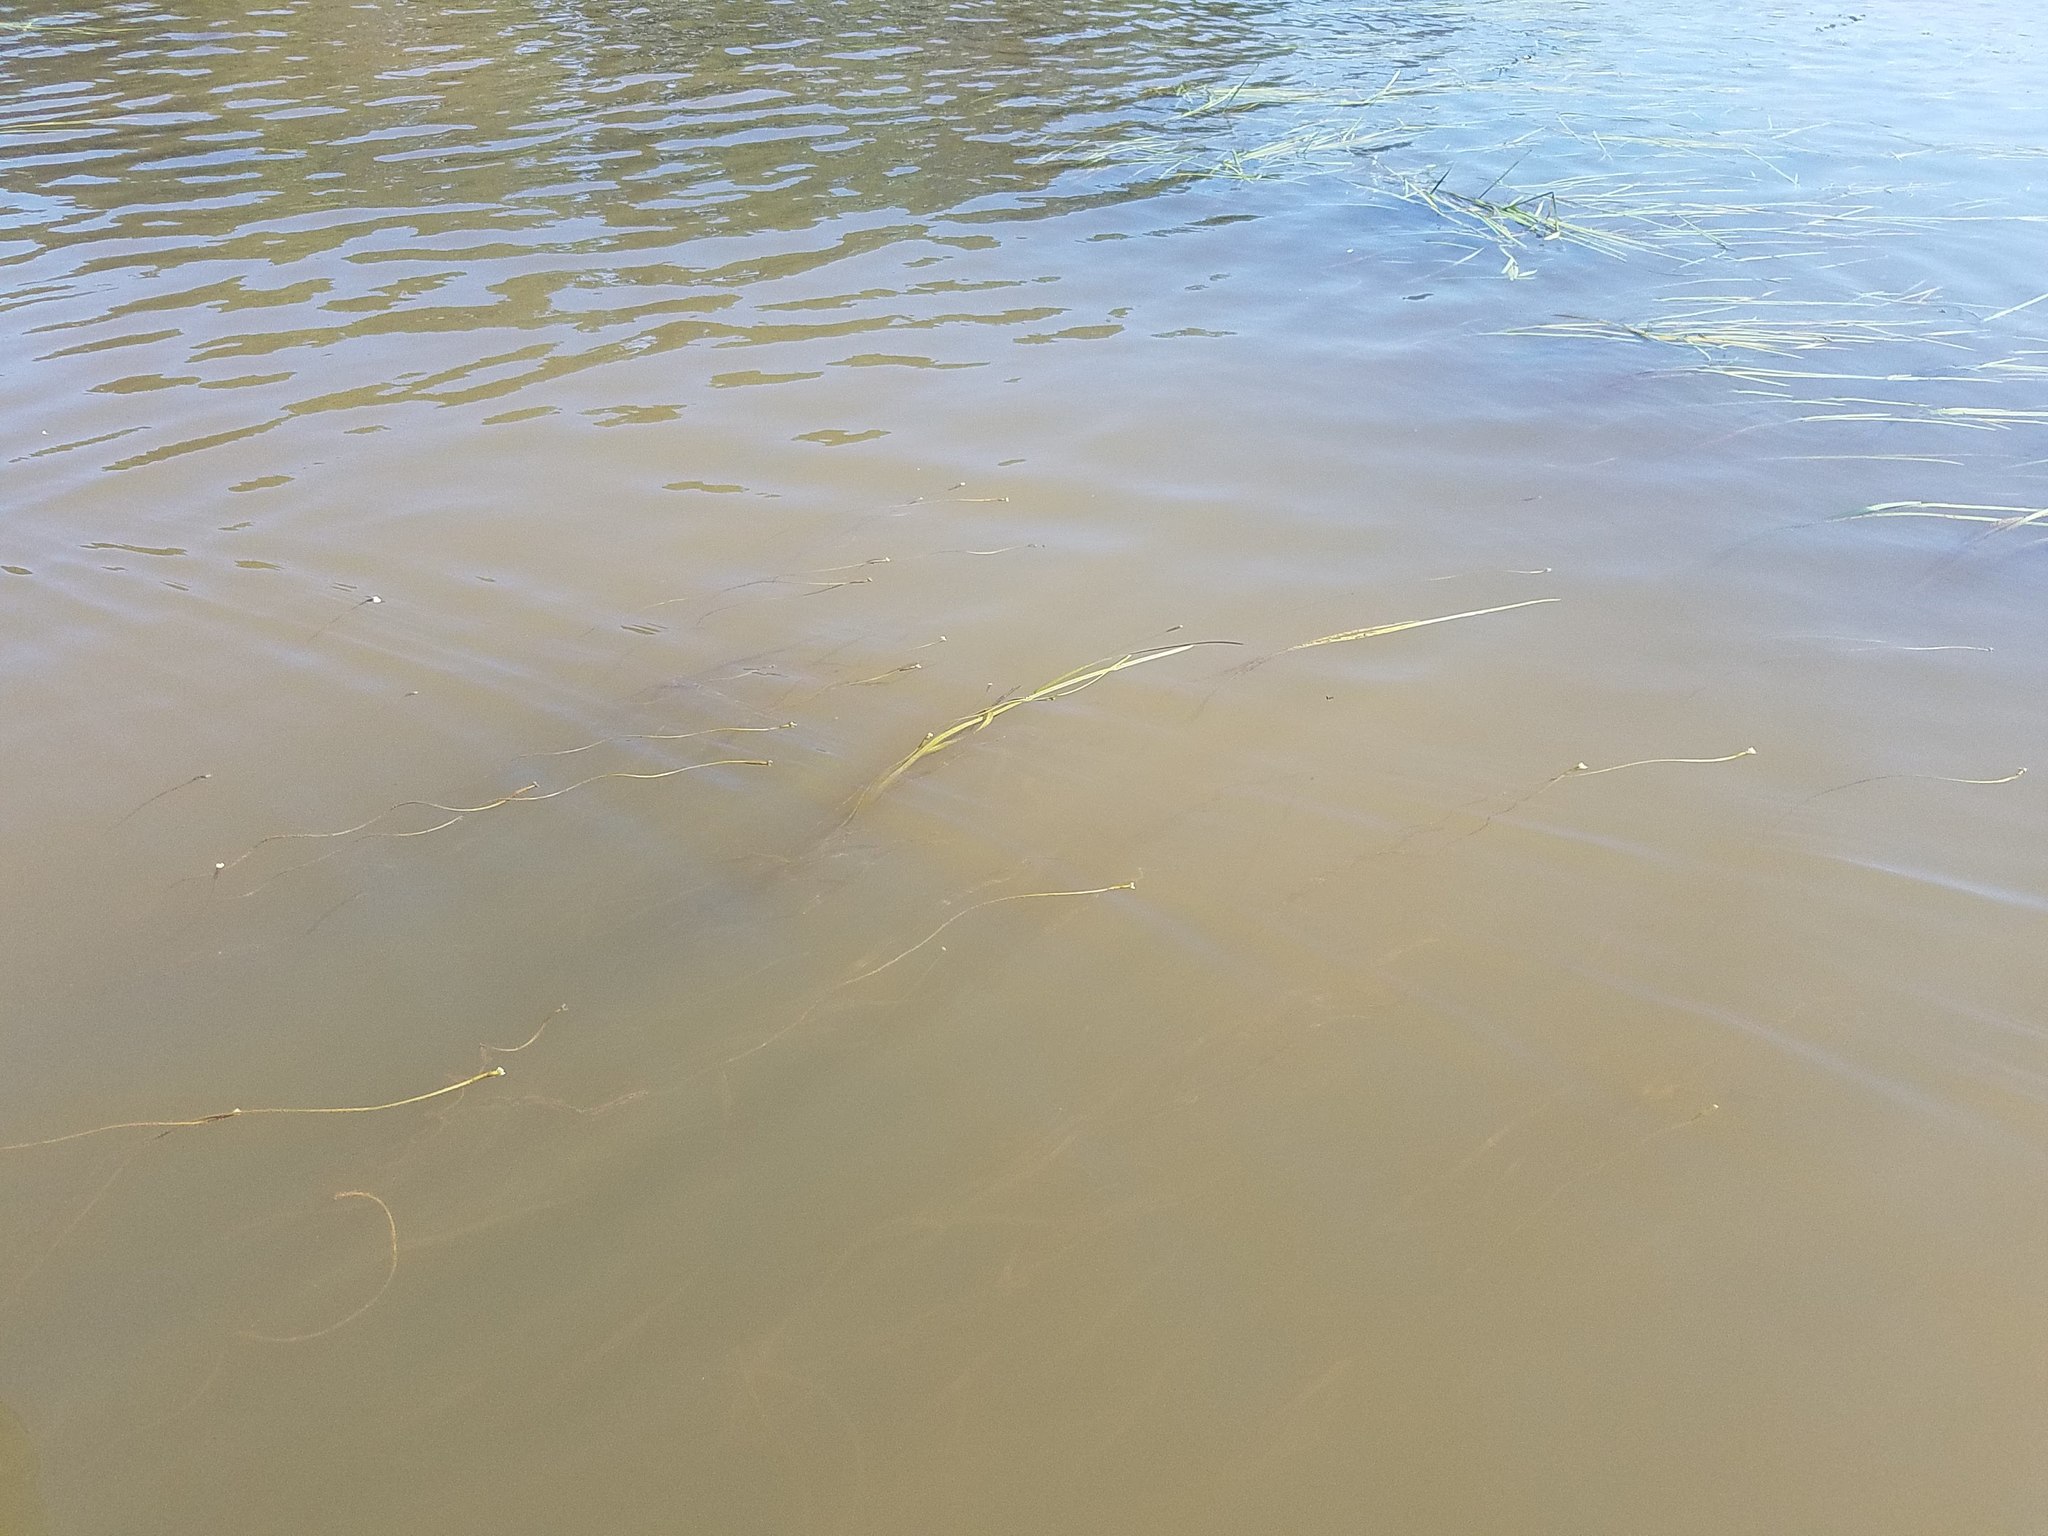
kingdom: Plantae
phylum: Tracheophyta
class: Liliopsida
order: Alismatales
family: Hydrocharitaceae
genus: Vallisneria
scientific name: Vallisneria americana
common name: American eelgrass
